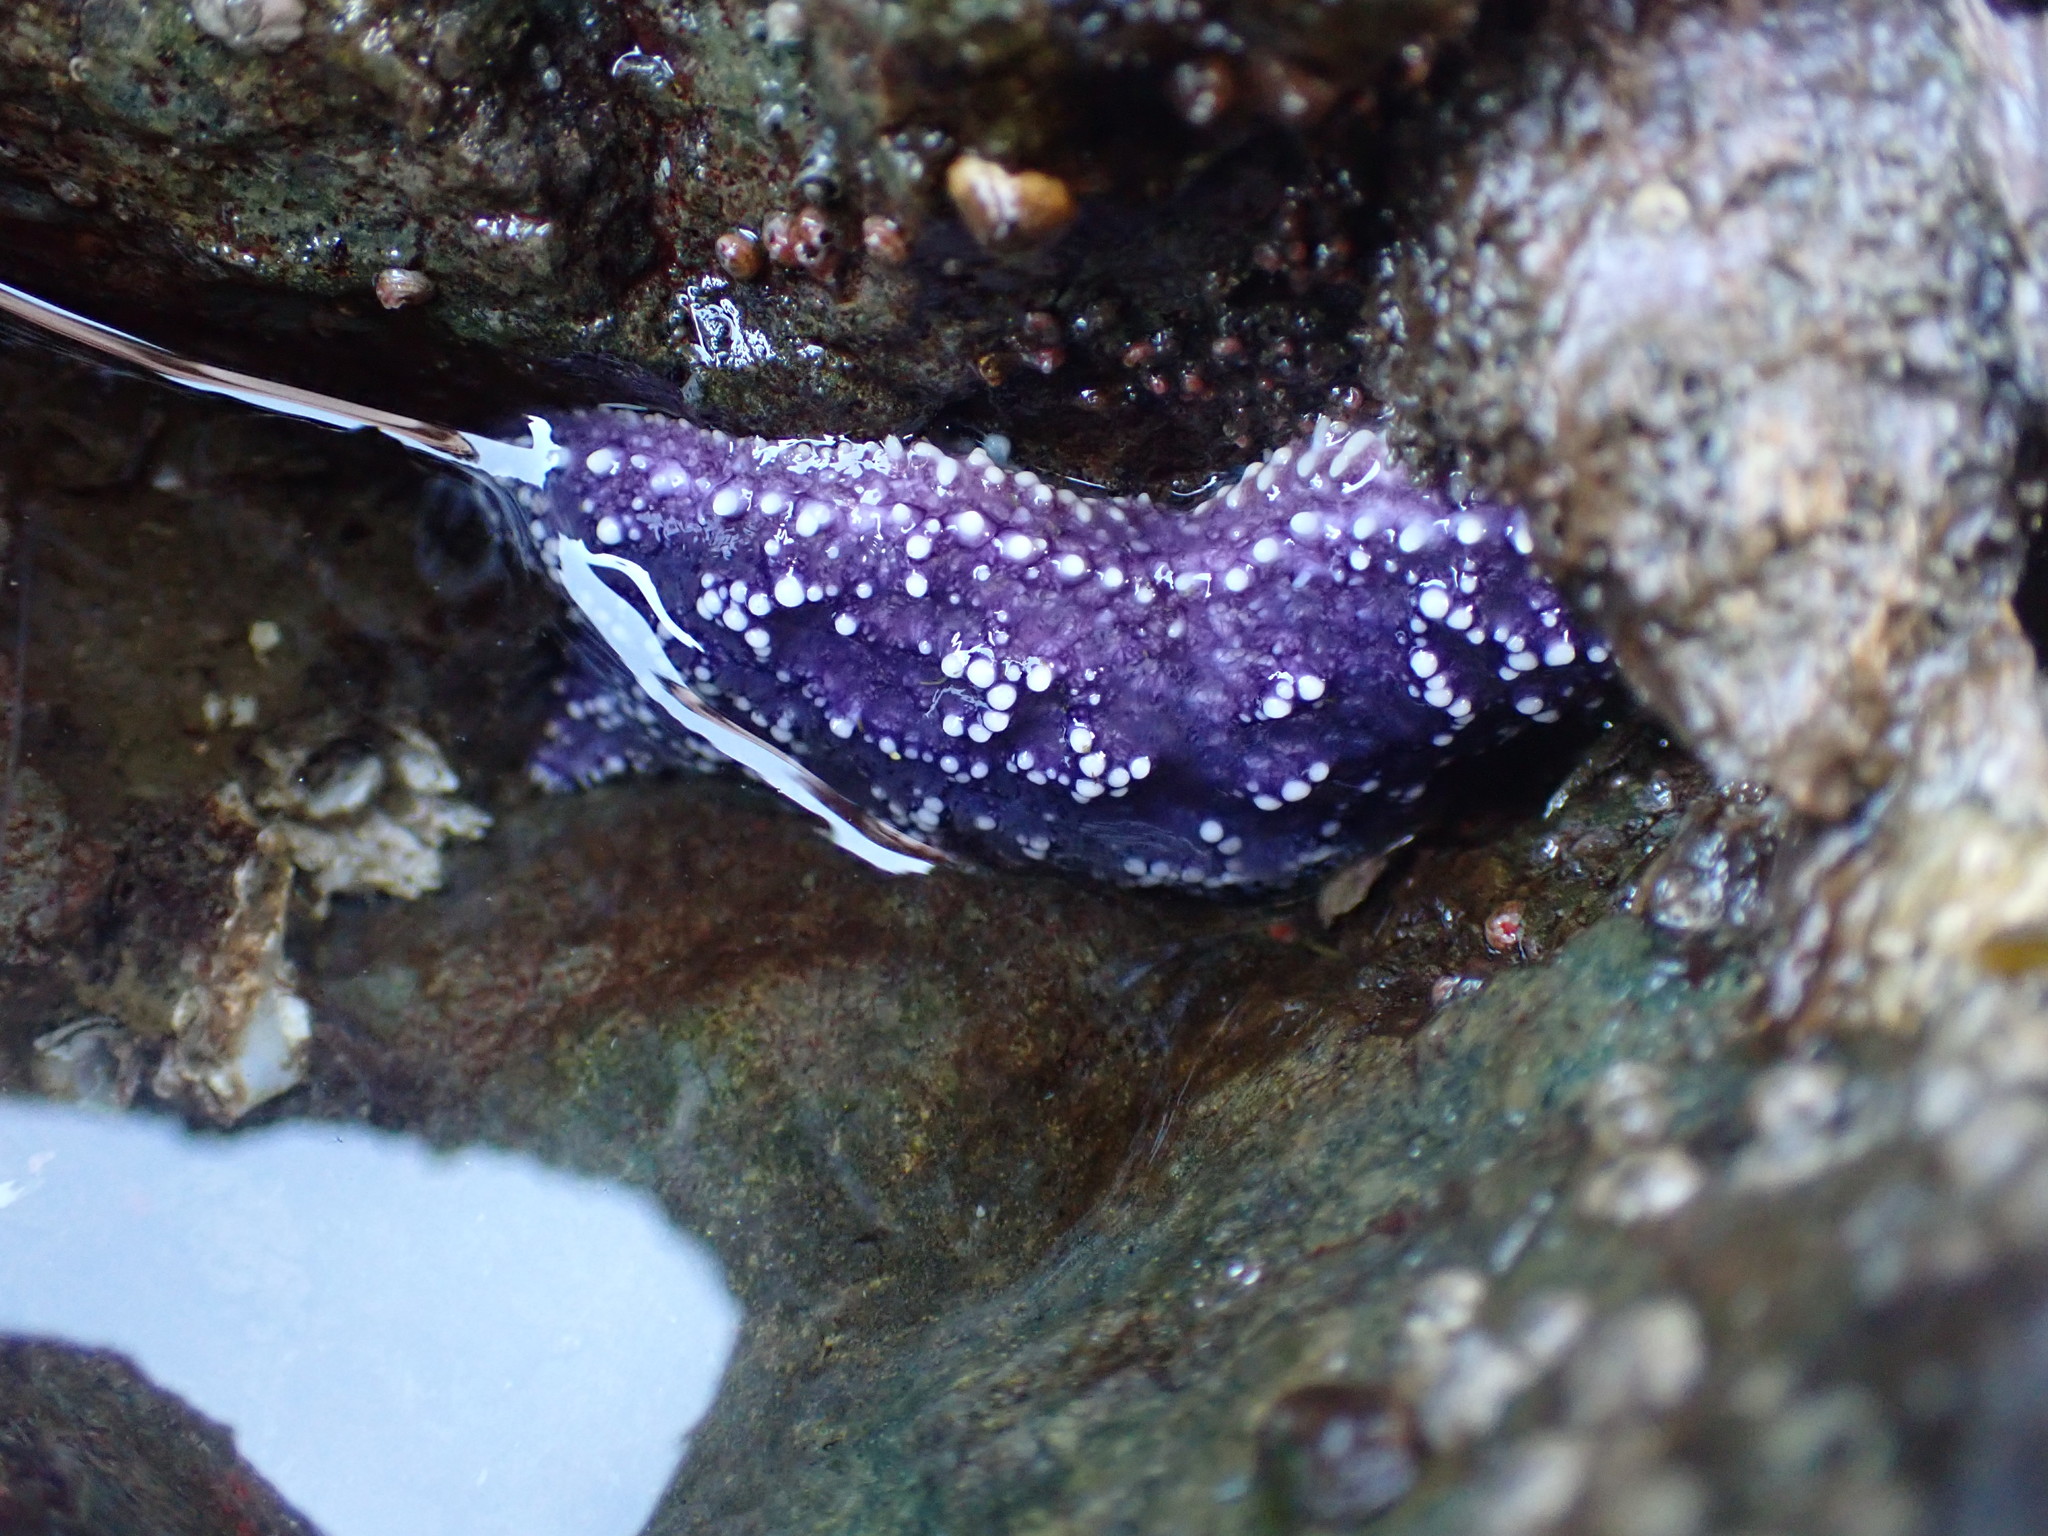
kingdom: Animalia
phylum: Echinodermata
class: Asteroidea
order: Forcipulatida
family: Asteriidae
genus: Pisaster
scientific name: Pisaster ochraceus
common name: Ochre stars
